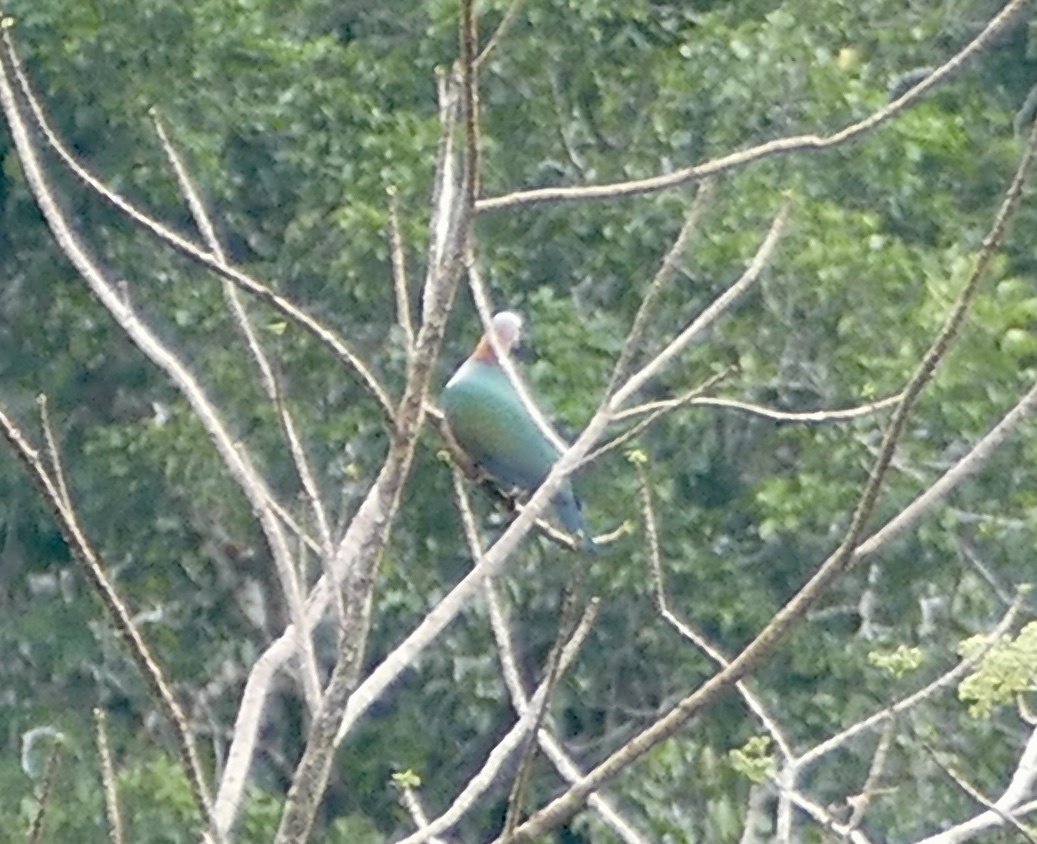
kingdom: Animalia
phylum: Chordata
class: Aves
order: Columbiformes
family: Columbidae
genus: Ducula
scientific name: Ducula aenea
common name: Green imperial pigeon
